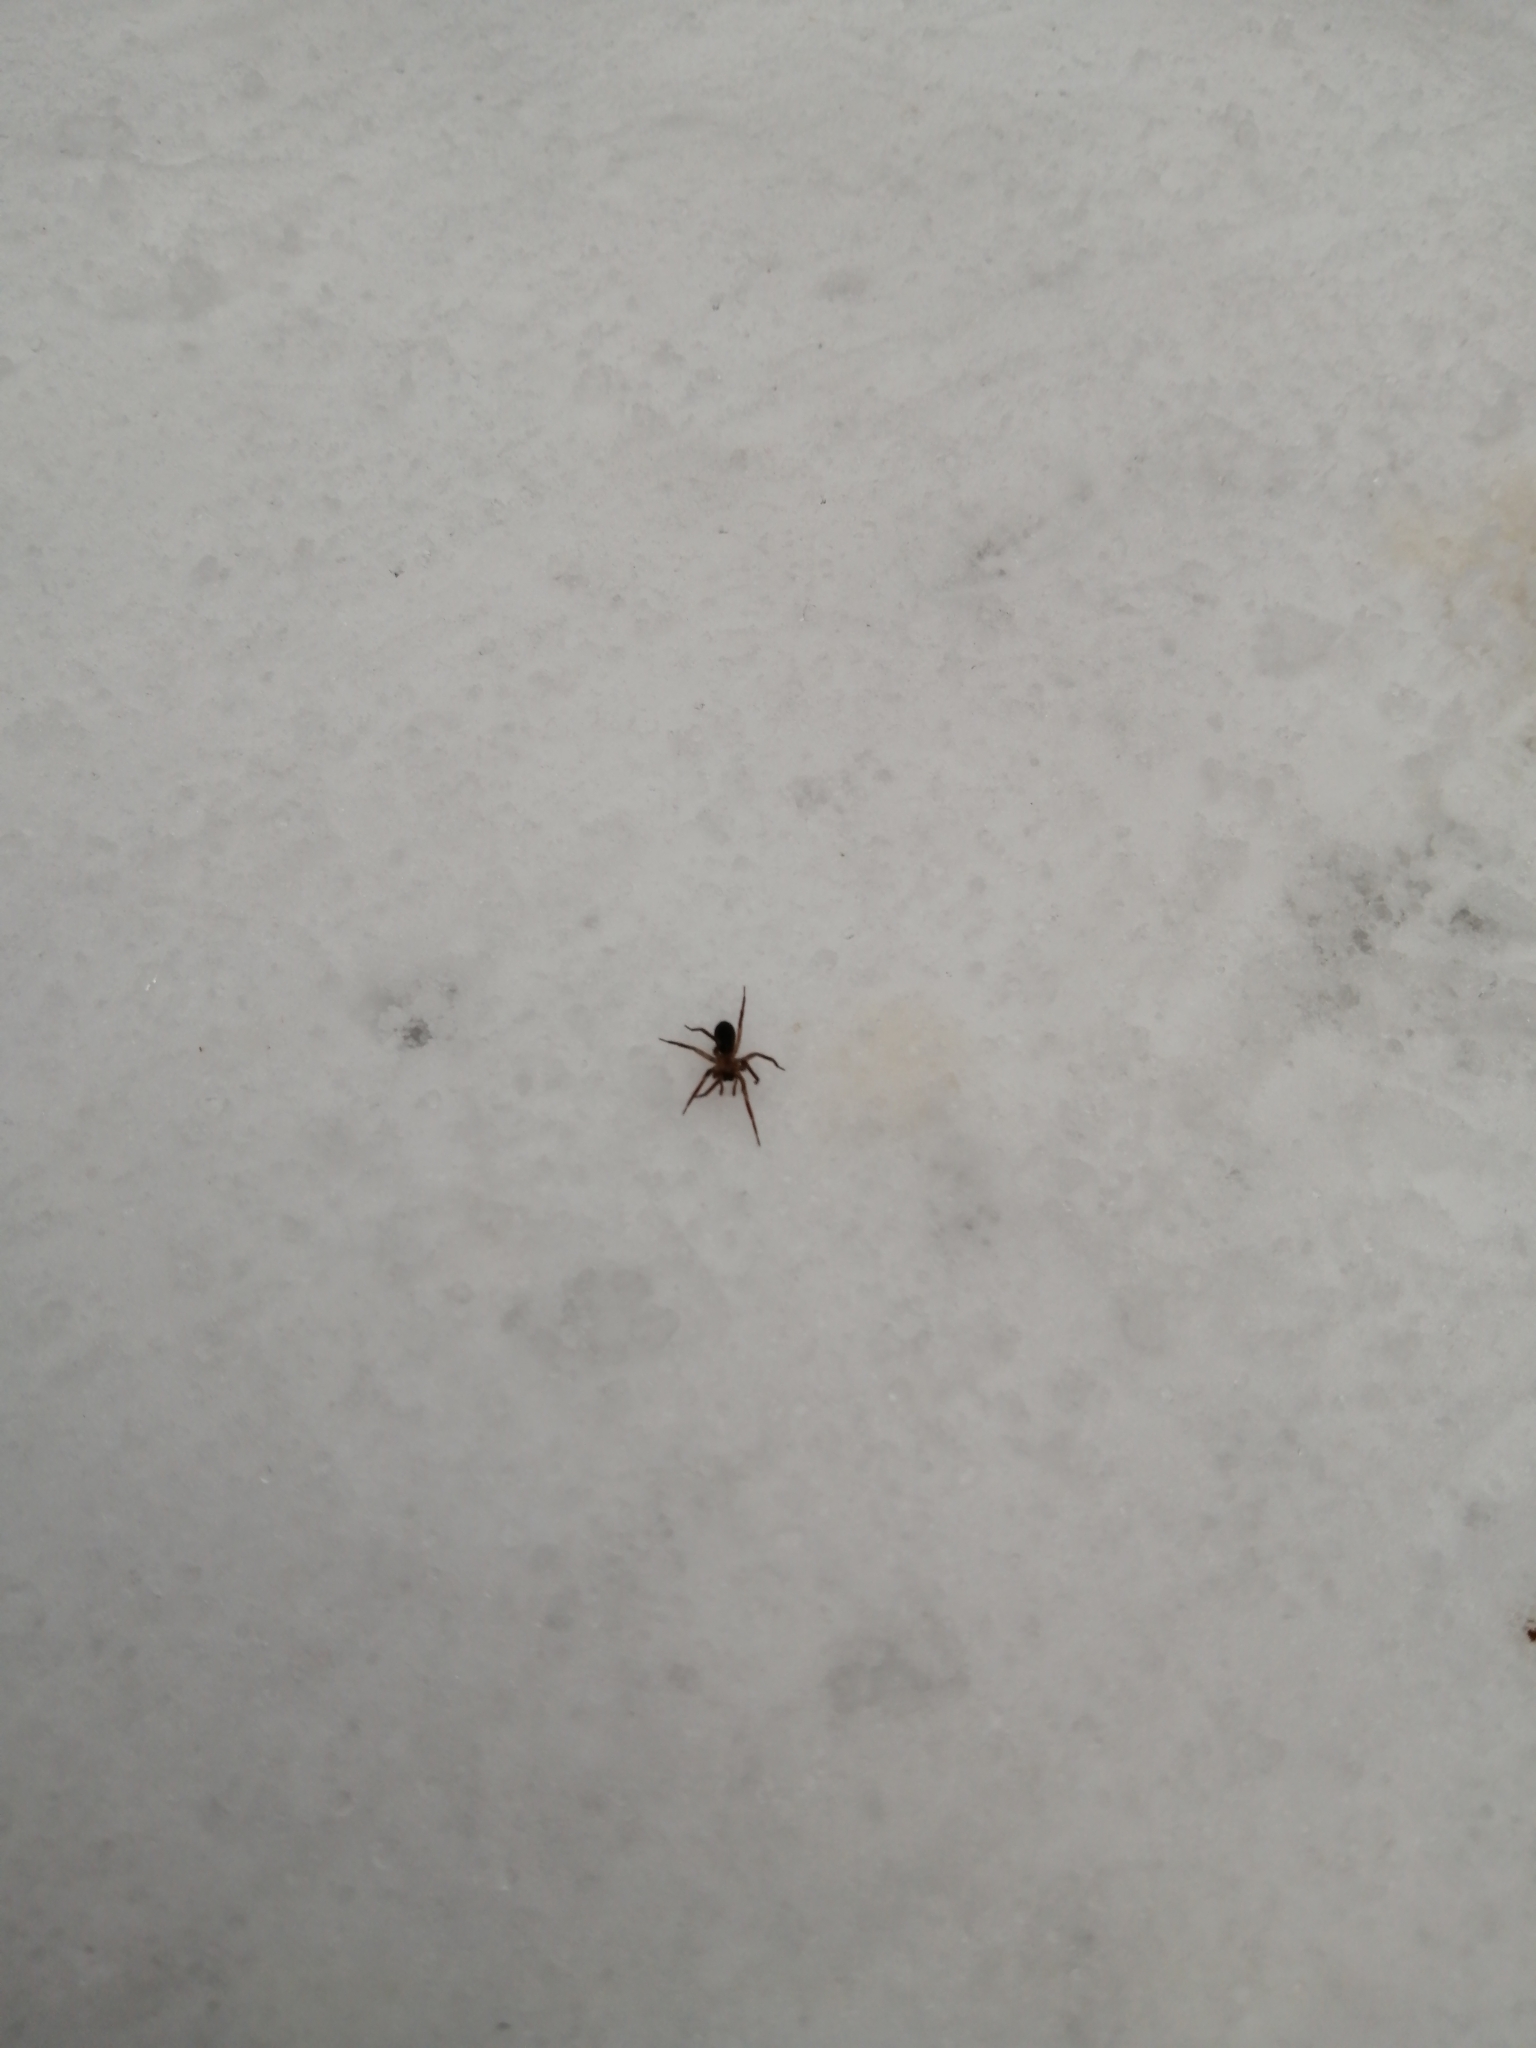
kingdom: Animalia
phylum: Arthropoda
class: Arachnida
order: Araneae
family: Hahniidae
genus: Cicurina
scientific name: Cicurina cicur
